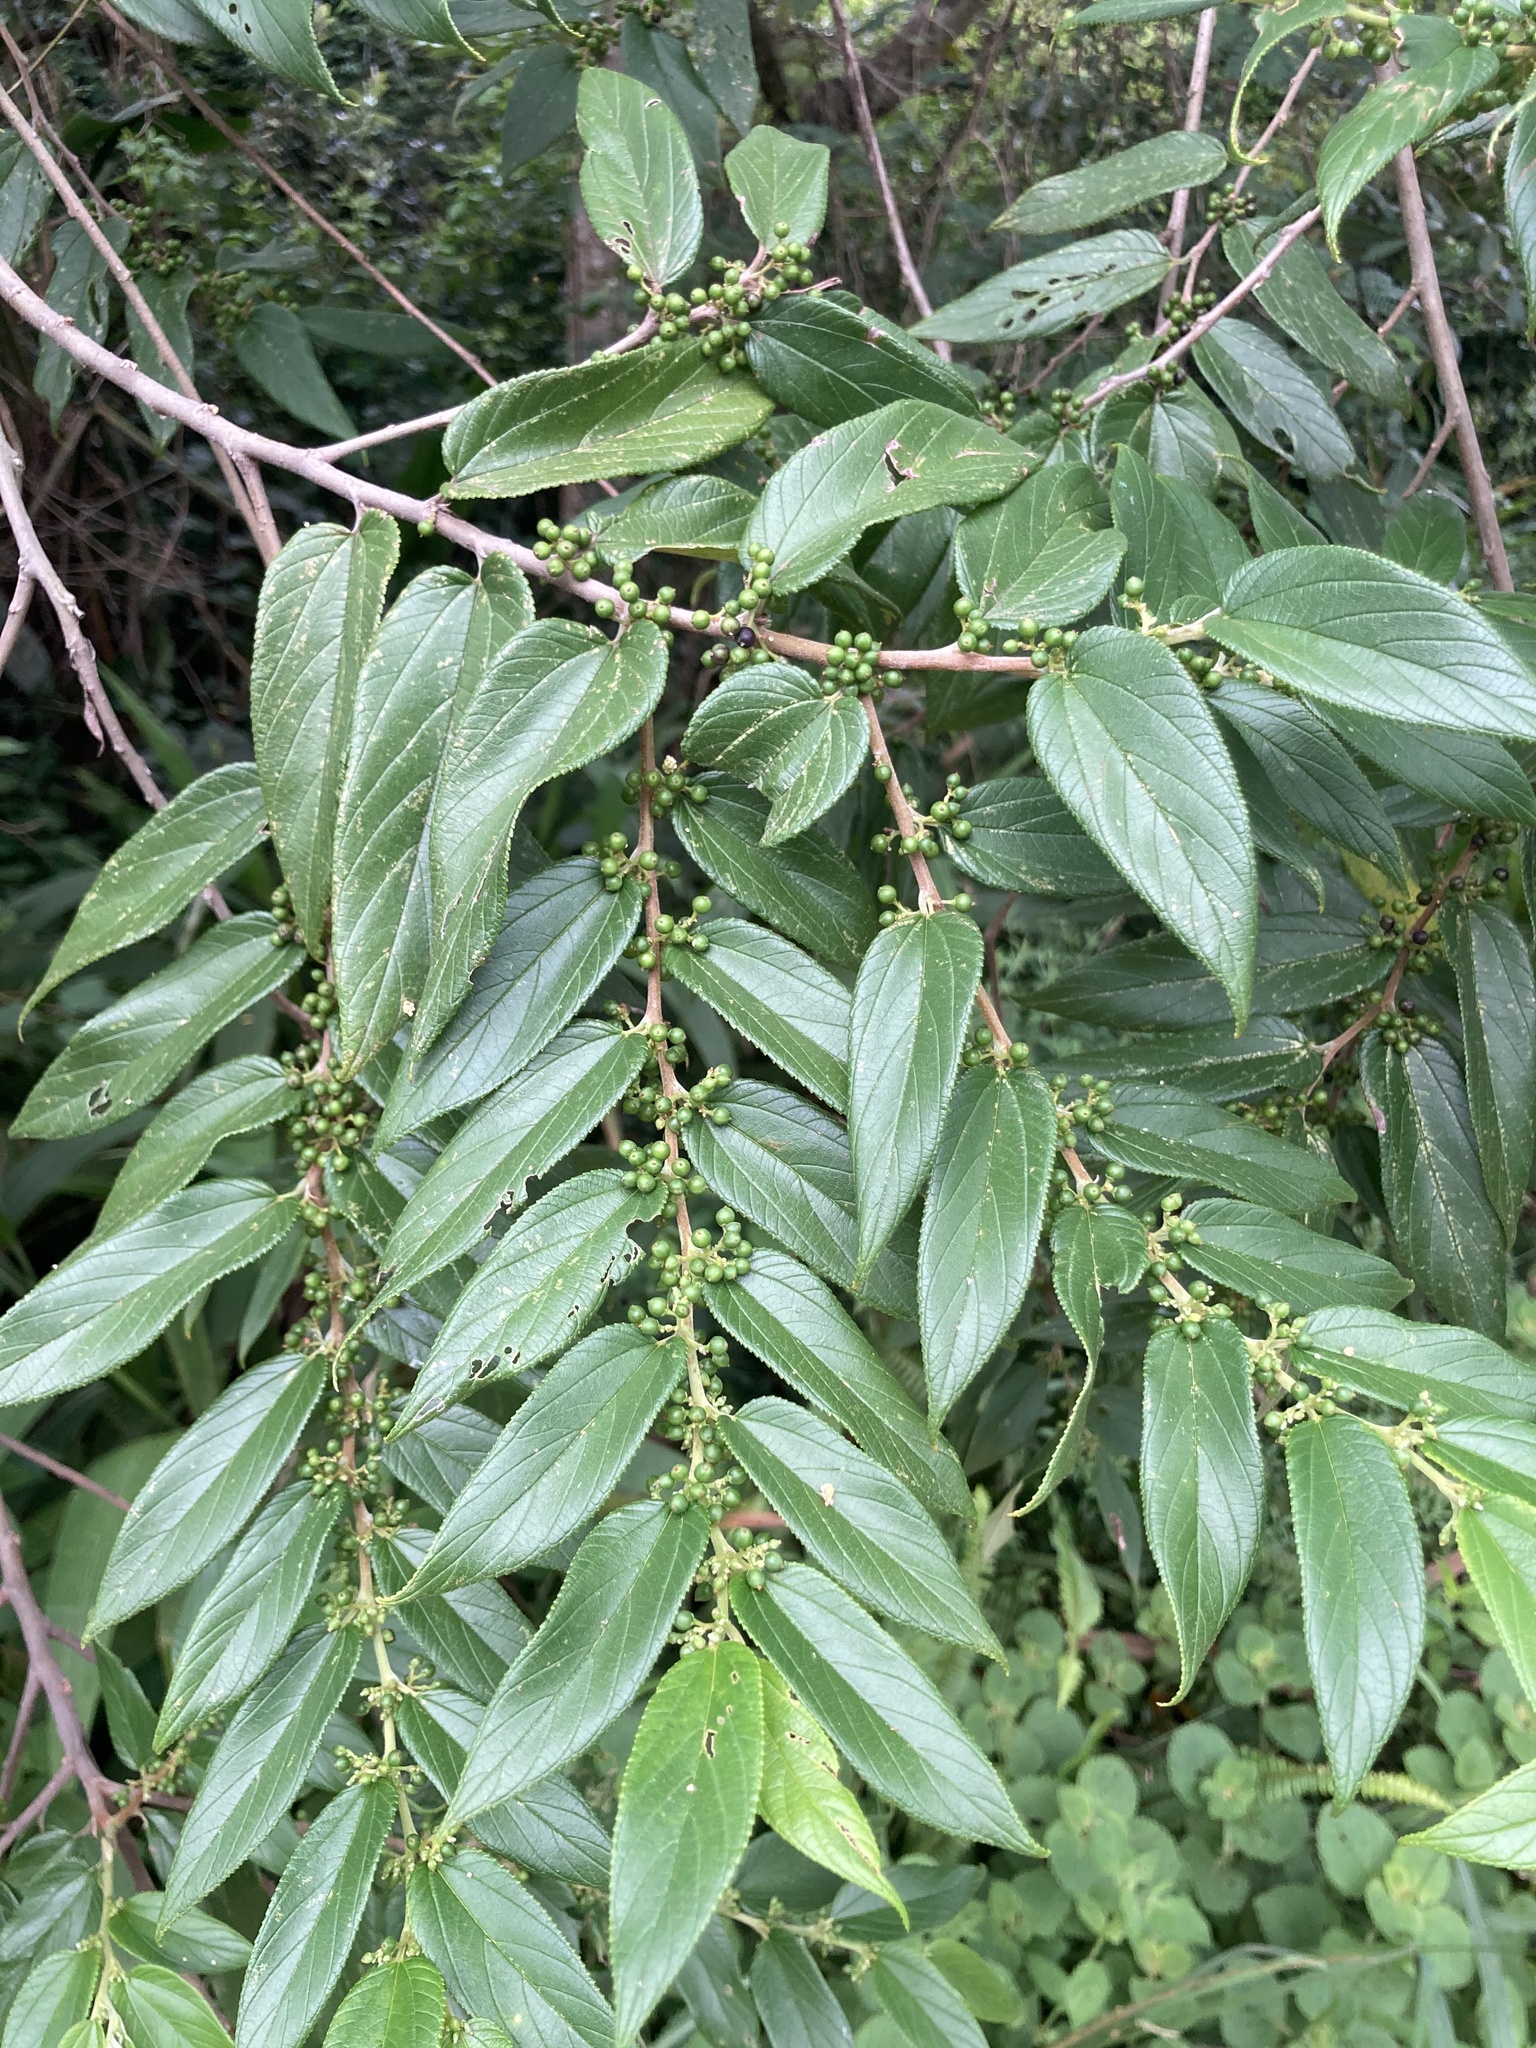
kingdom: Plantae
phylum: Tracheophyta
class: Magnoliopsida
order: Rosales
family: Cannabaceae
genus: Trema
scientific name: Trema orientale
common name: Indian charcoal tree
